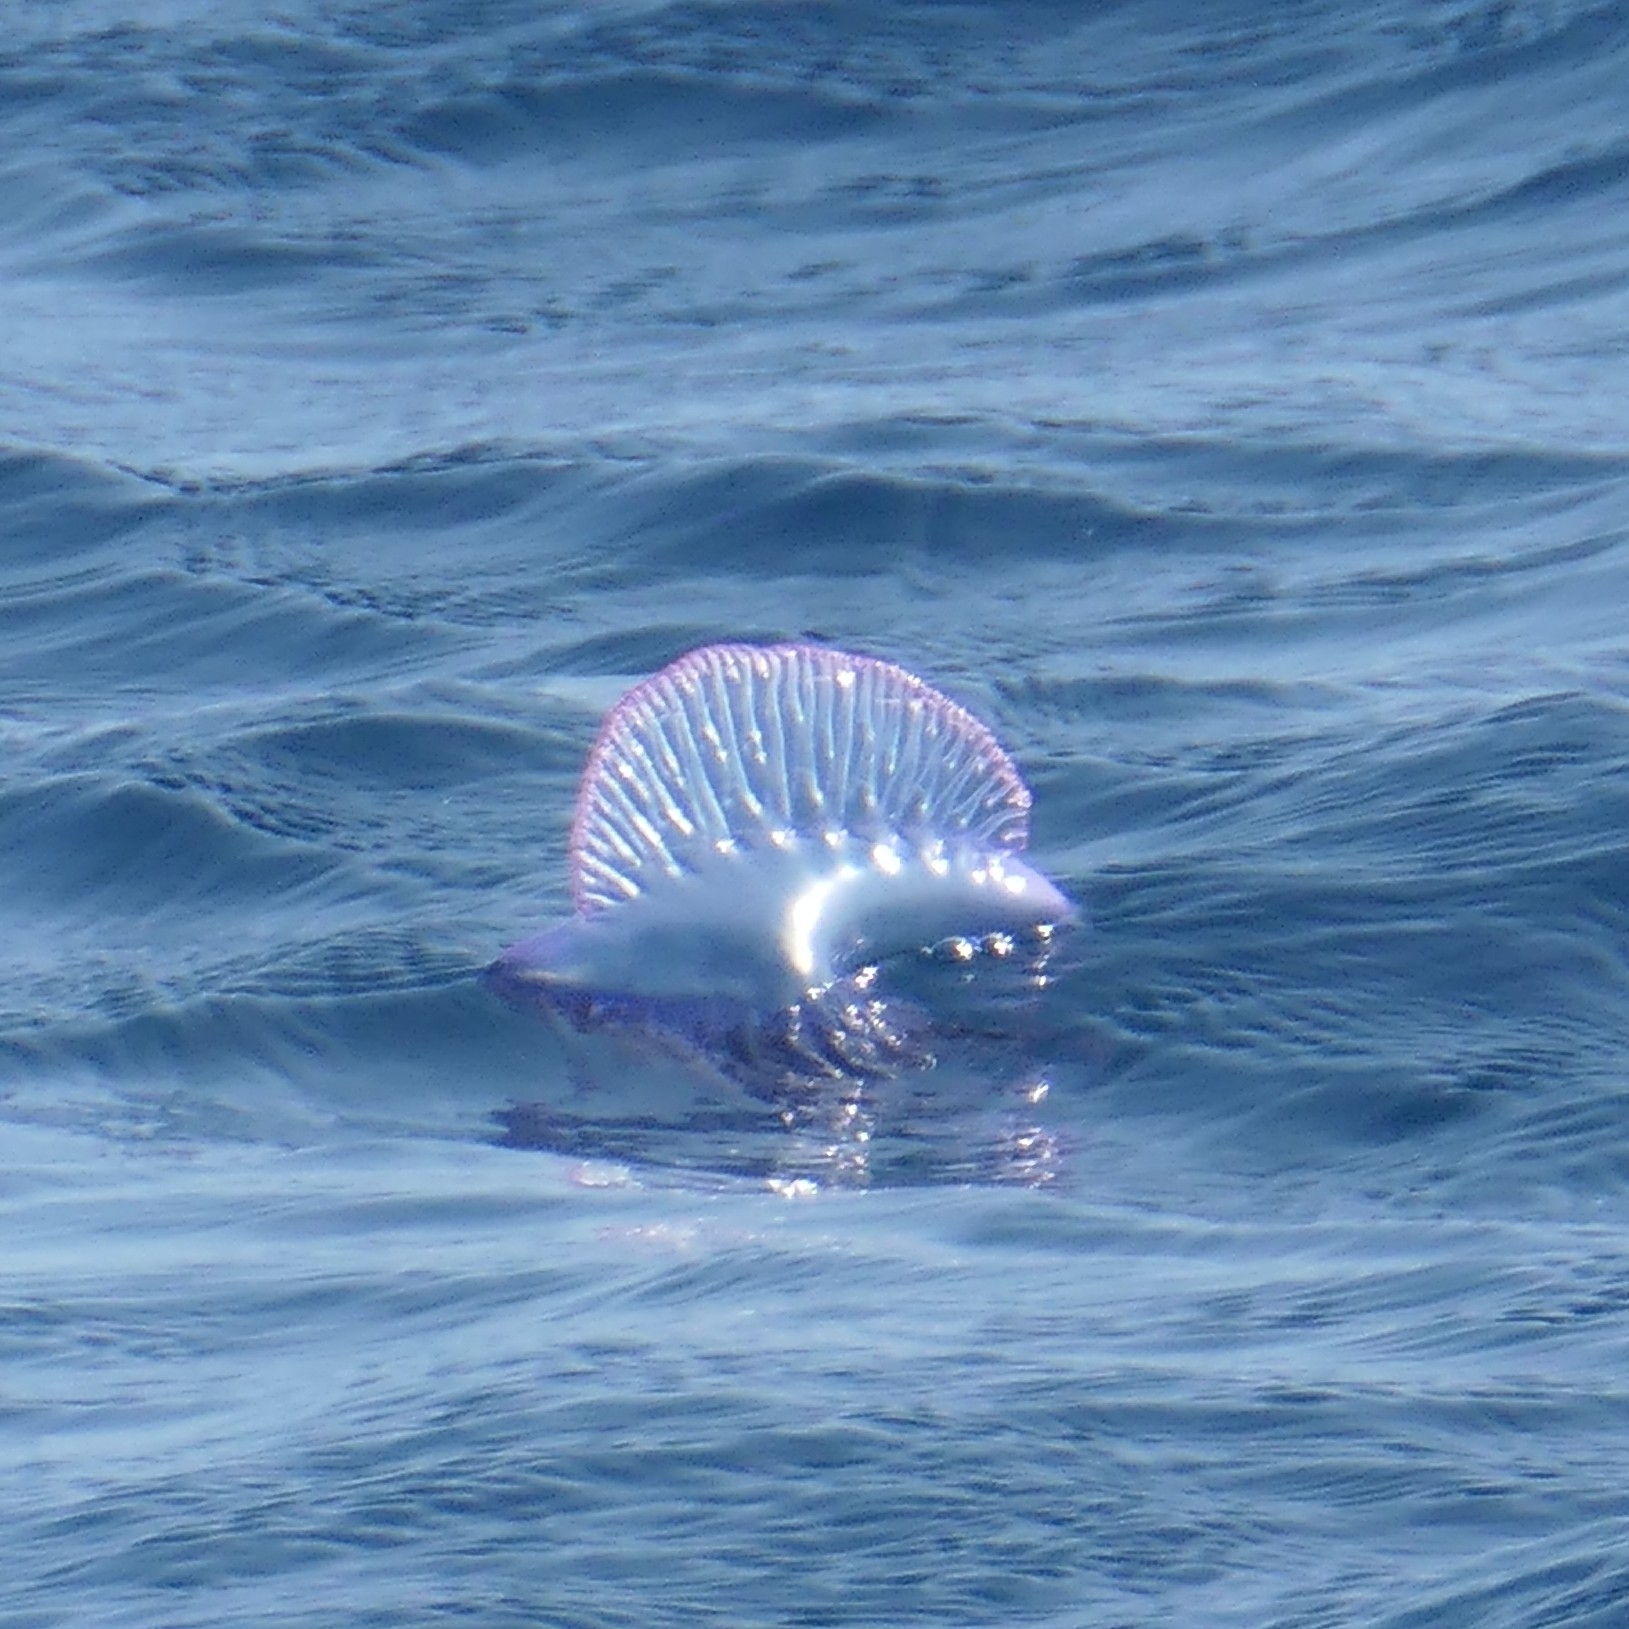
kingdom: Animalia
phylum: Cnidaria
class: Hydrozoa
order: Siphonophorae
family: Physaliidae
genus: Physalia
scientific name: Physalia physalis
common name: Portuguese man-of-war
